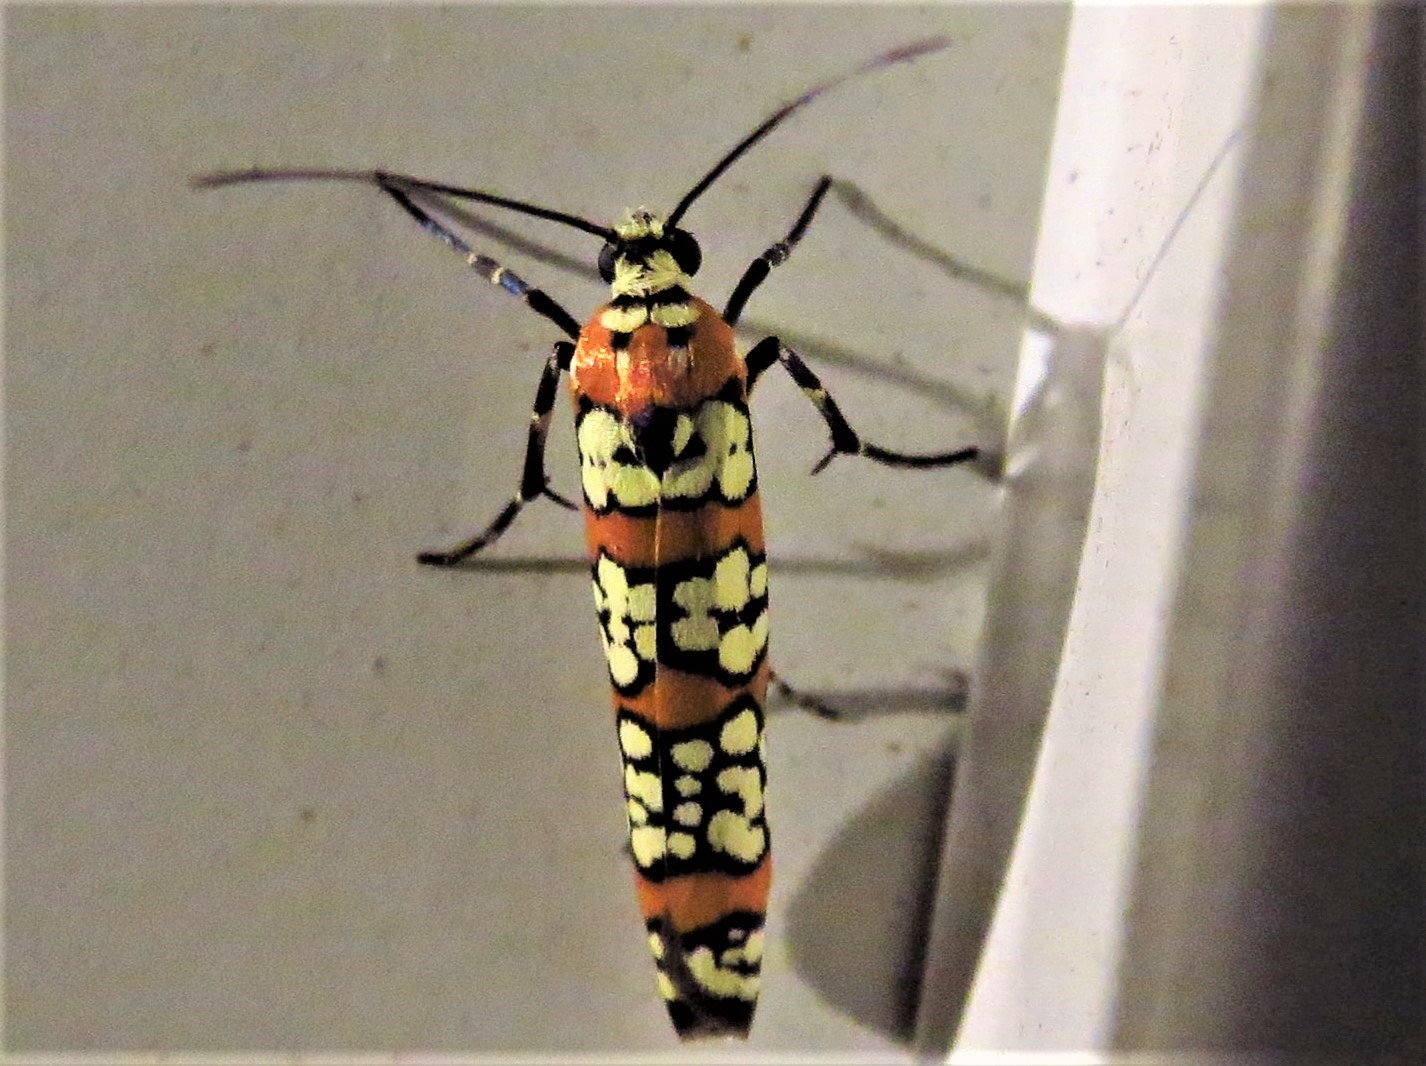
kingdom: Animalia
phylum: Arthropoda
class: Insecta
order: Lepidoptera
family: Attevidae
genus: Atteva
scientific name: Atteva punctella
